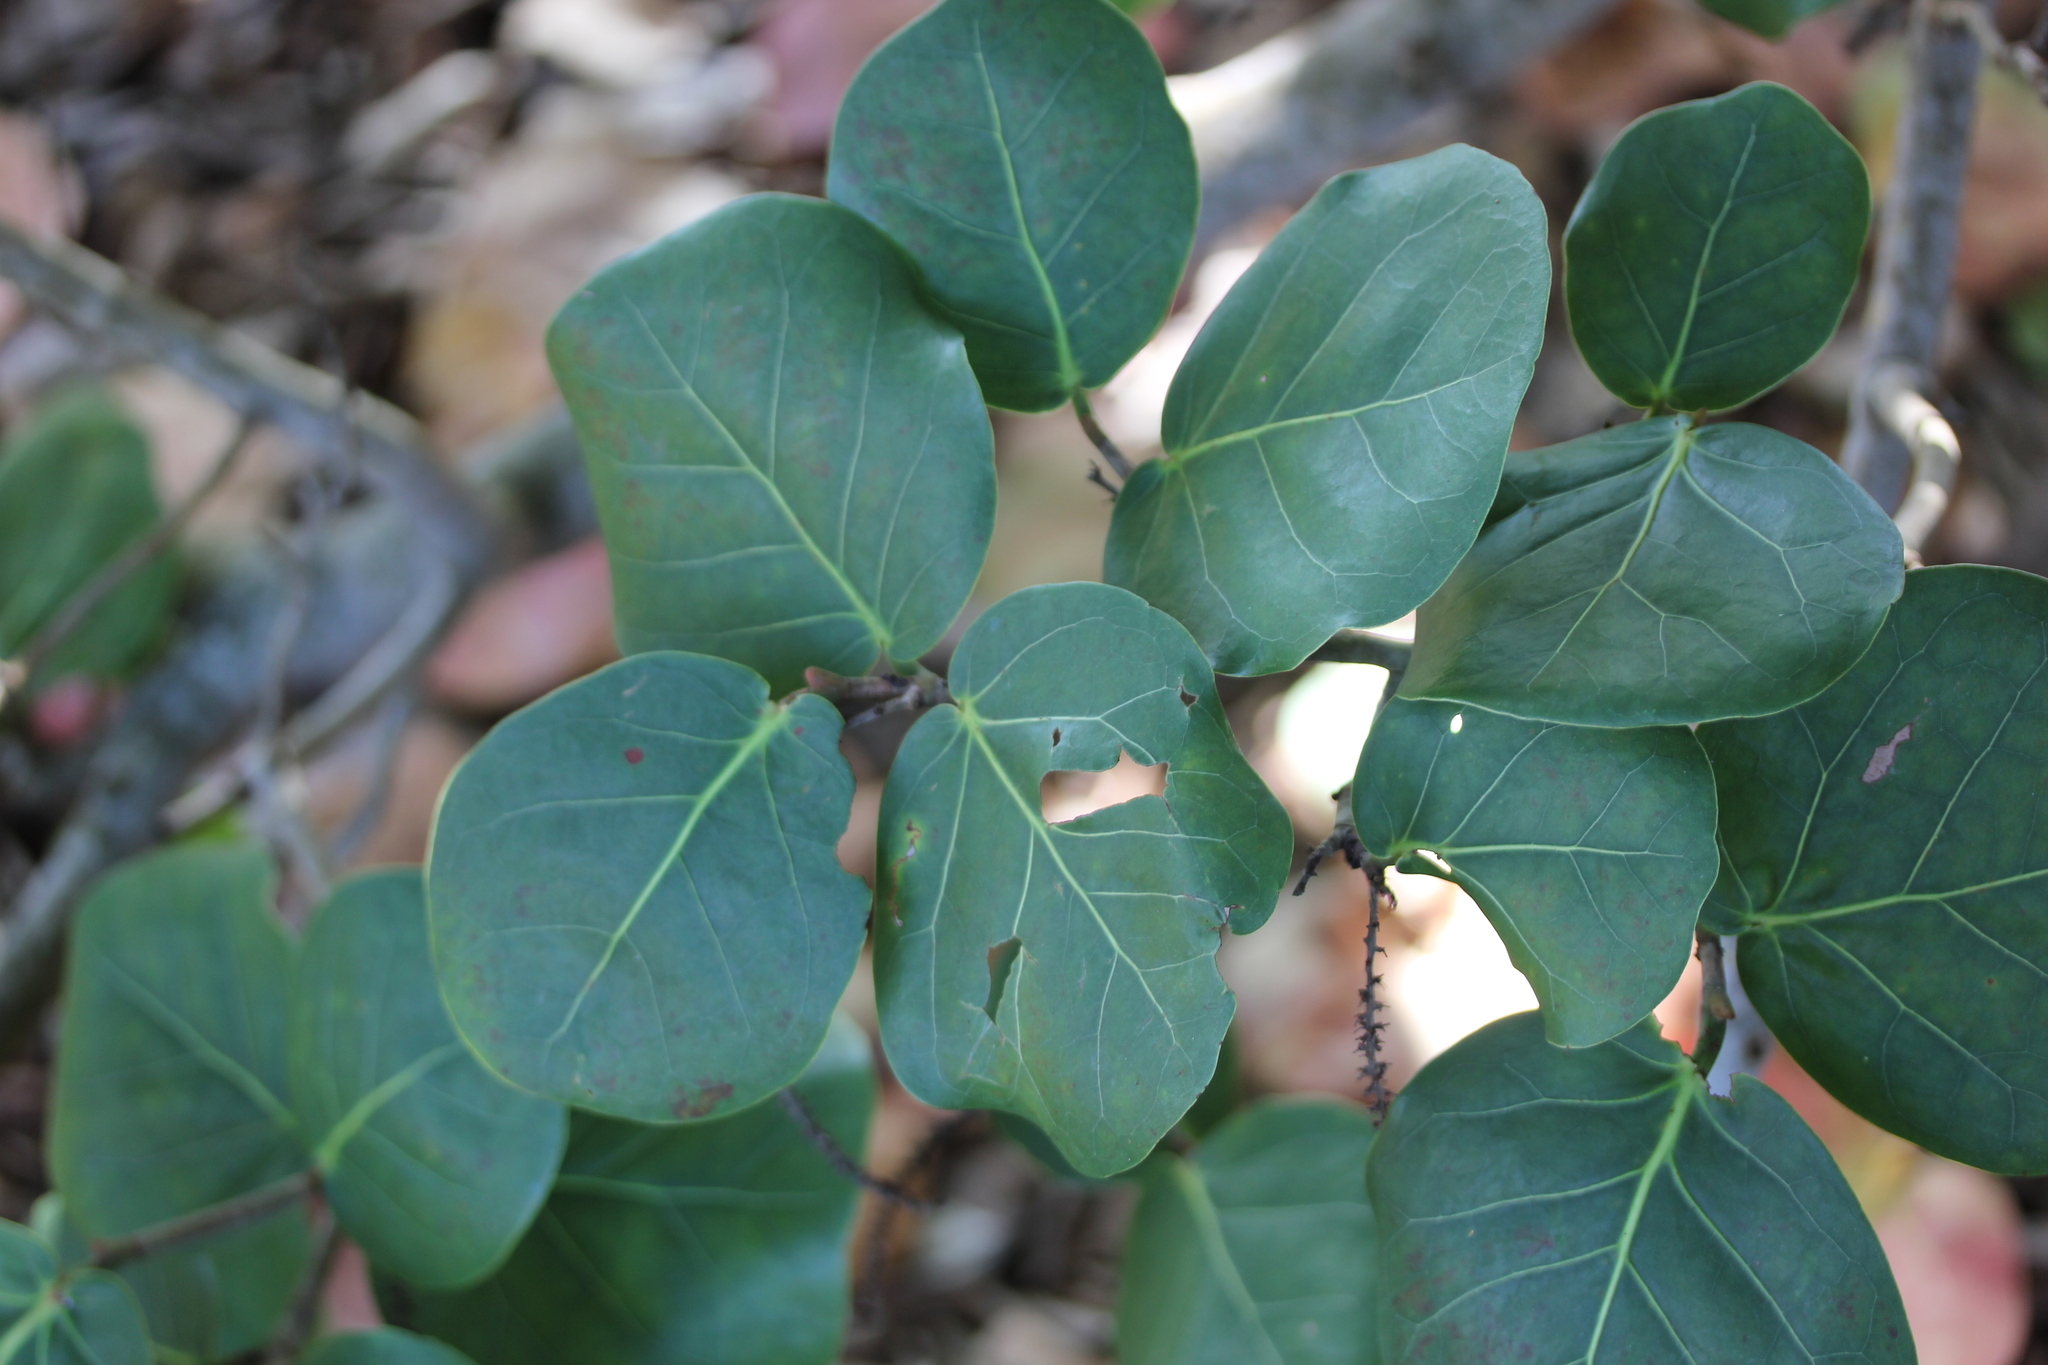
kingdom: Plantae
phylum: Tracheophyta
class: Magnoliopsida
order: Caryophyllales
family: Polygonaceae
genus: Coccoloba
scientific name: Coccoloba uvifera
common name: Seagrape
